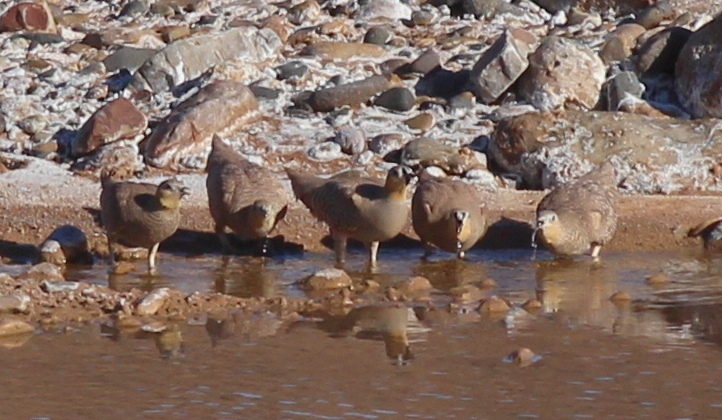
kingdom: Animalia
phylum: Chordata
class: Aves
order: Pteroclidiformes
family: Pteroclididae
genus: Pterocles
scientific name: Pterocles coronatus
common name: Crowned sandgrouse
